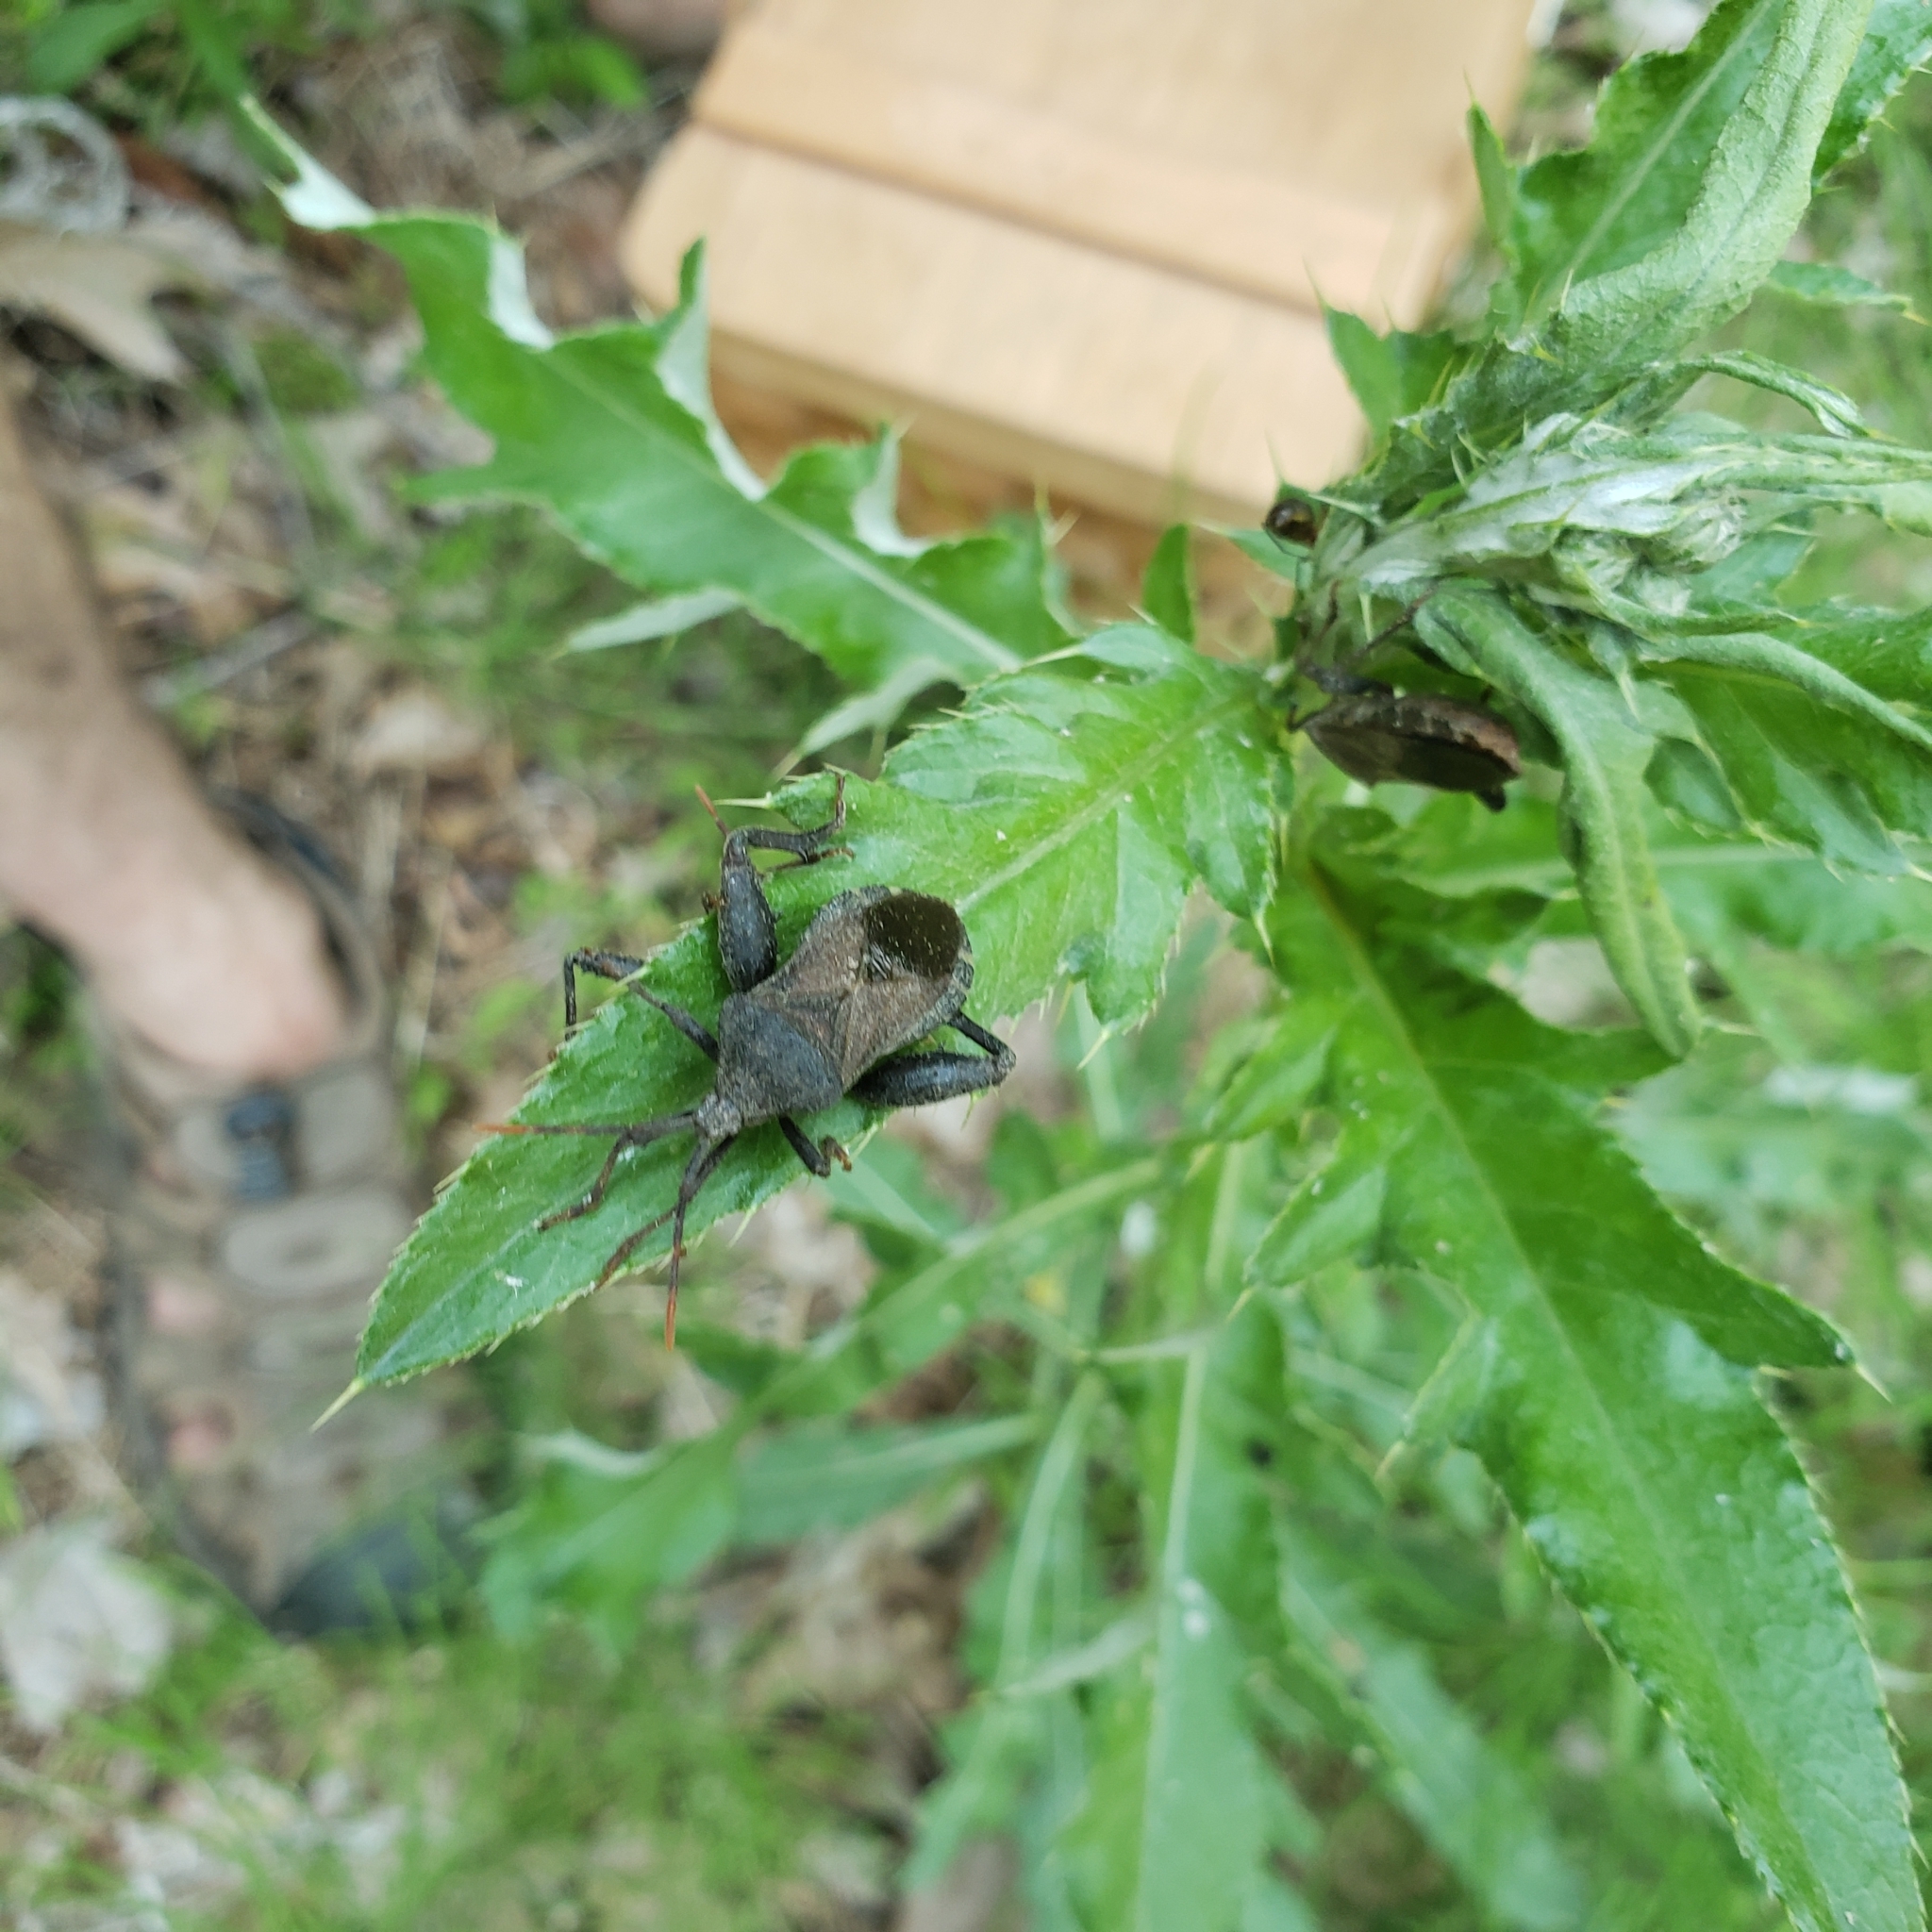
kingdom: Animalia
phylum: Arthropoda
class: Insecta
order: Hemiptera
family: Coreidae
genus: Piezogaster
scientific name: Piezogaster calcarator
